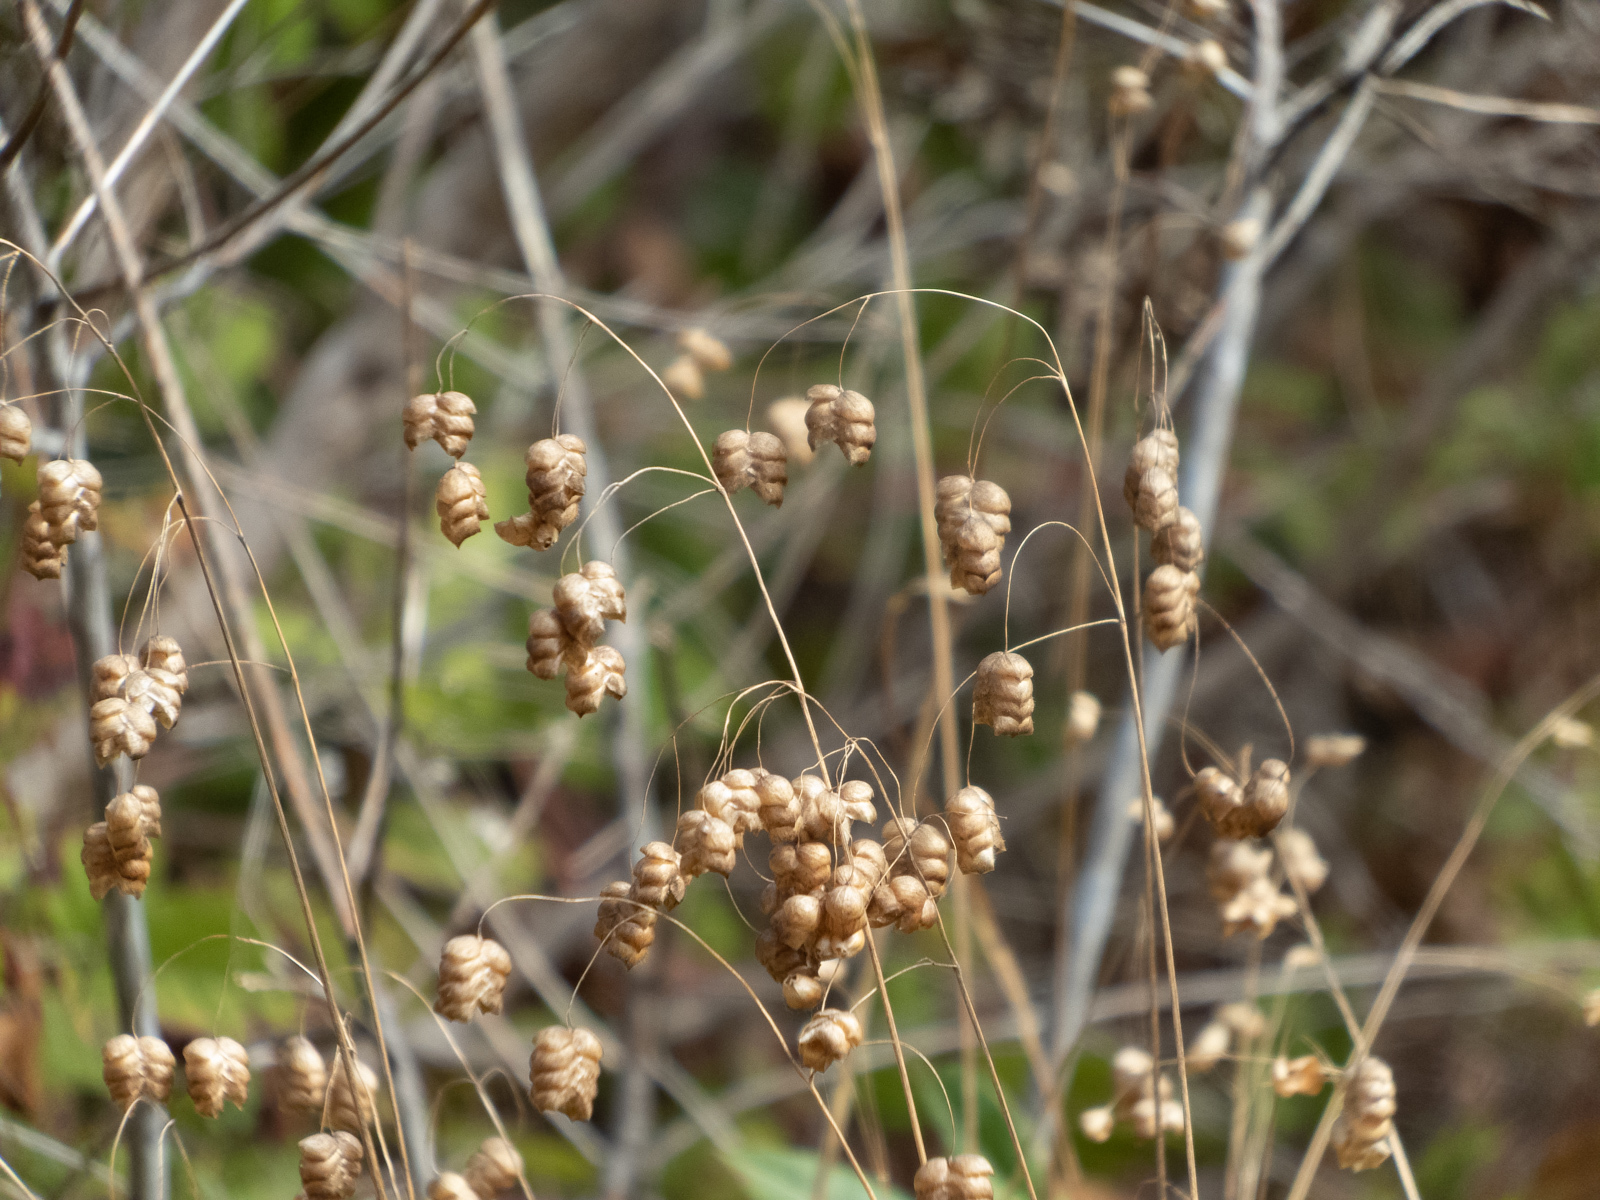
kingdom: Plantae
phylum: Tracheophyta
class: Liliopsida
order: Poales
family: Poaceae
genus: Briza
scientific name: Briza maxima
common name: Big quakinggrass
